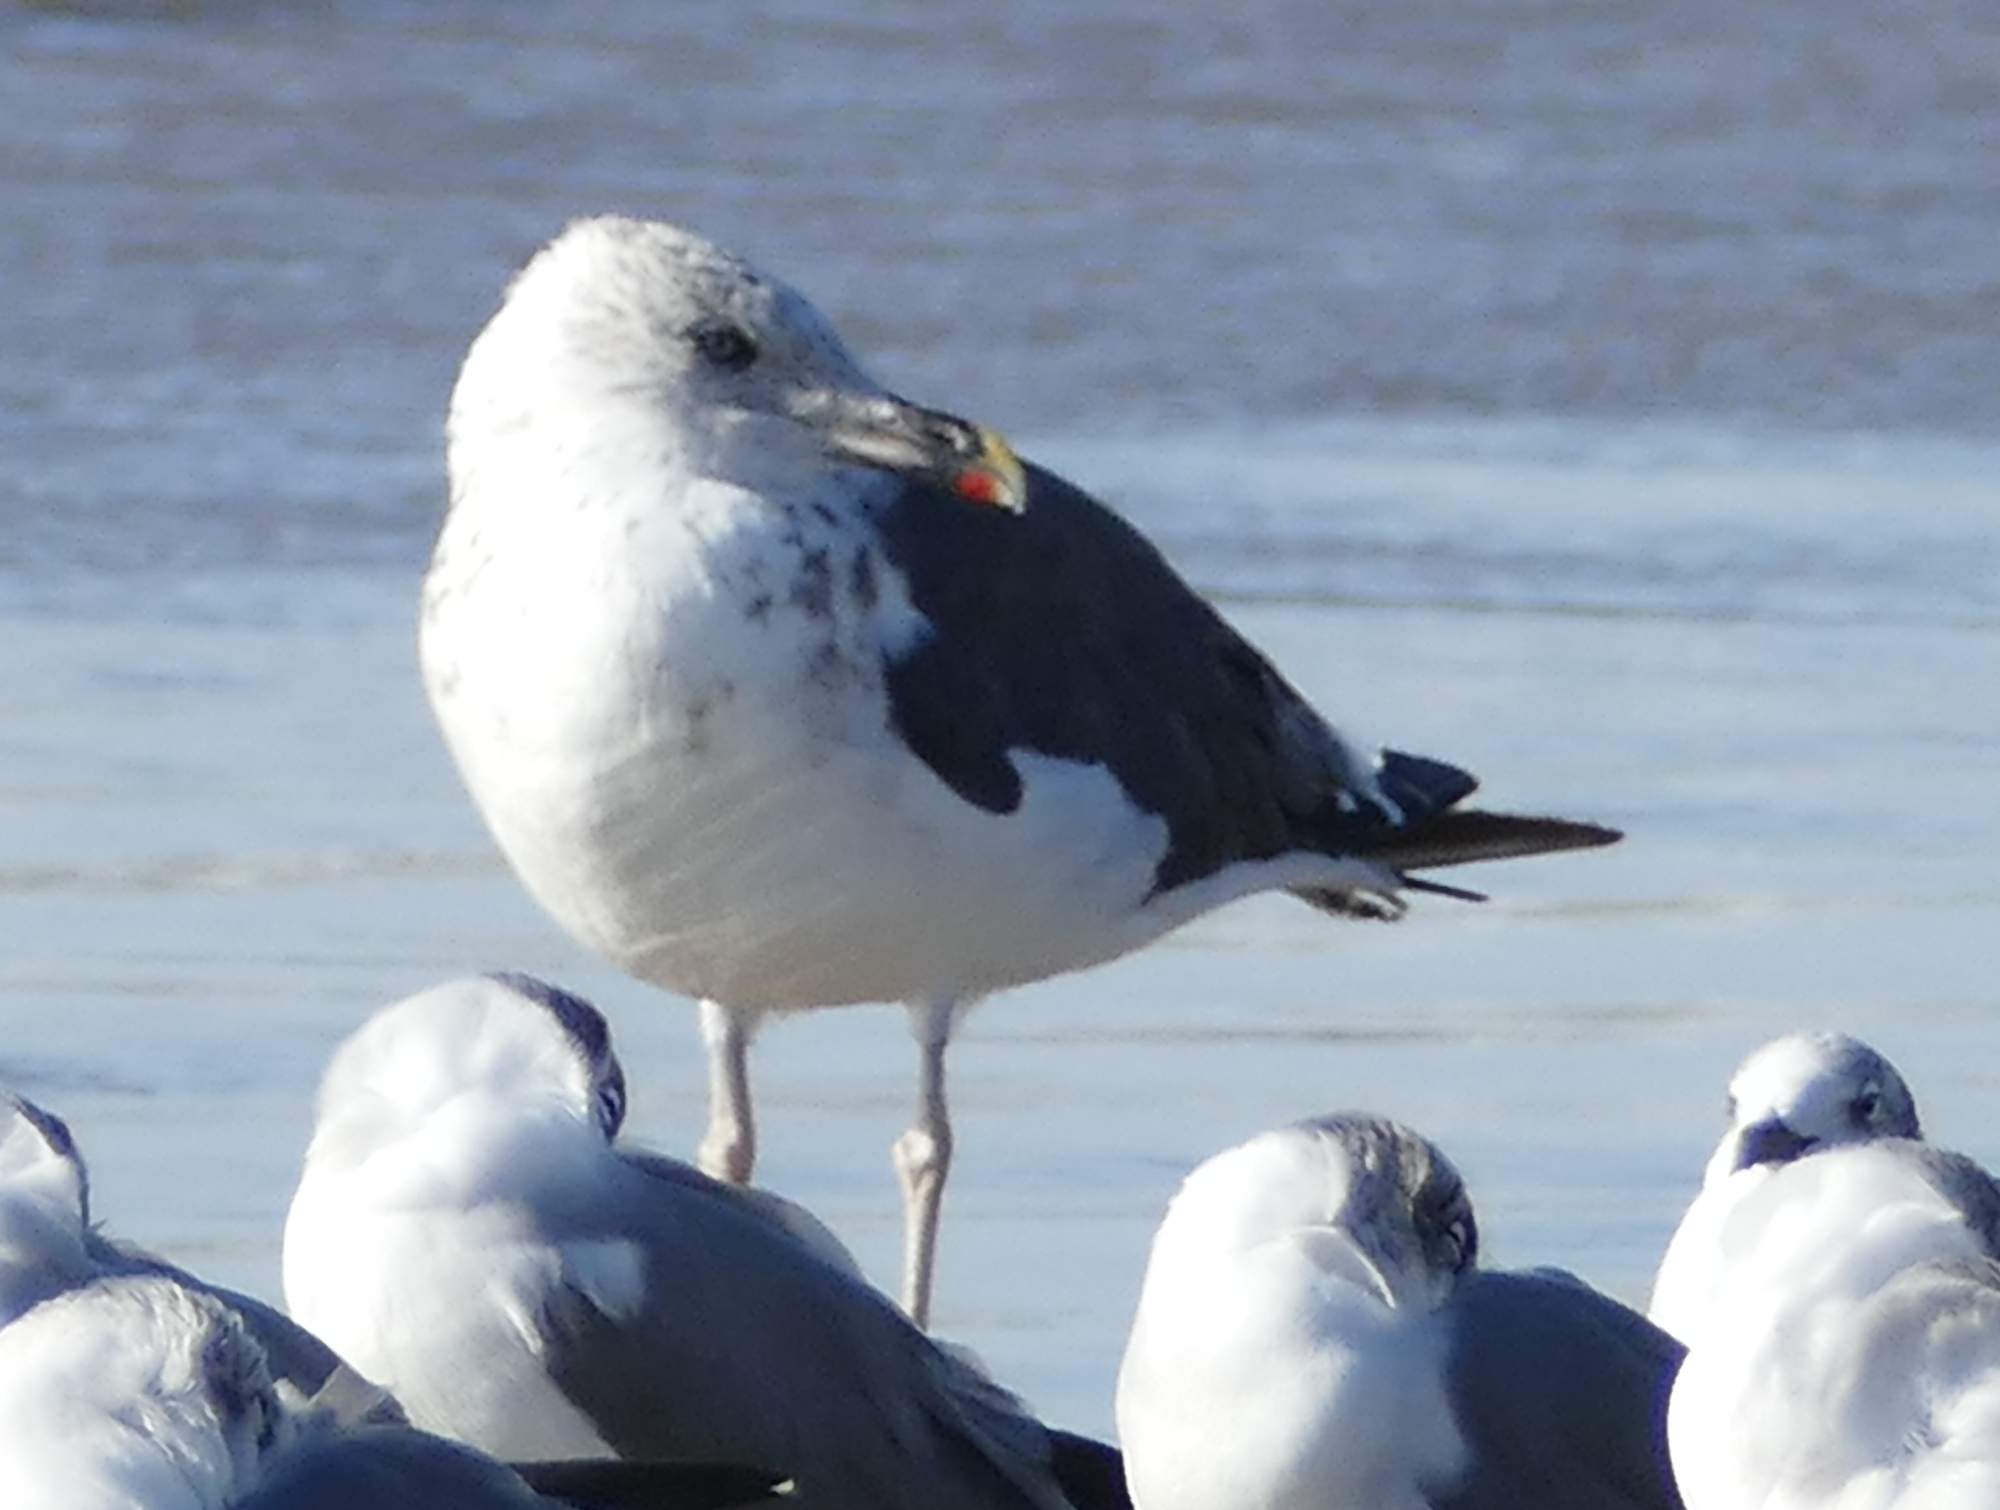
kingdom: Animalia
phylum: Chordata
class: Aves
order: Charadriiformes
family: Laridae
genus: Larus
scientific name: Larus fuscus
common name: Lesser black-backed gull
